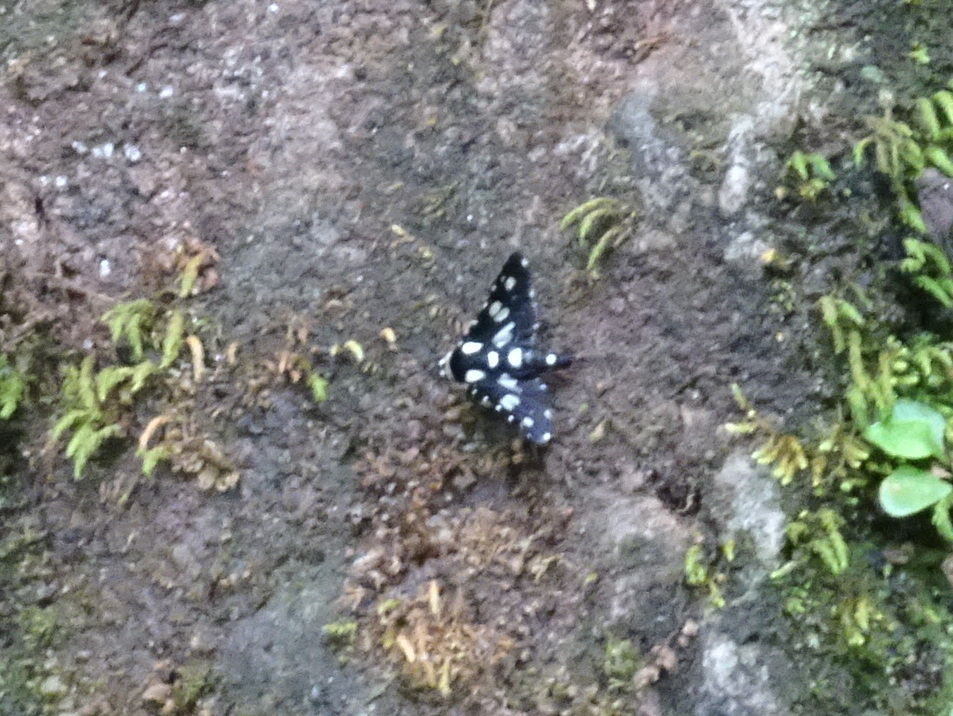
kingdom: Animalia
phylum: Arthropoda
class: Insecta
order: Lepidoptera
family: Thyrididae
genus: Pseudothyris
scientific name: Pseudothyris sepulchralis
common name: Mournful thyris moth
